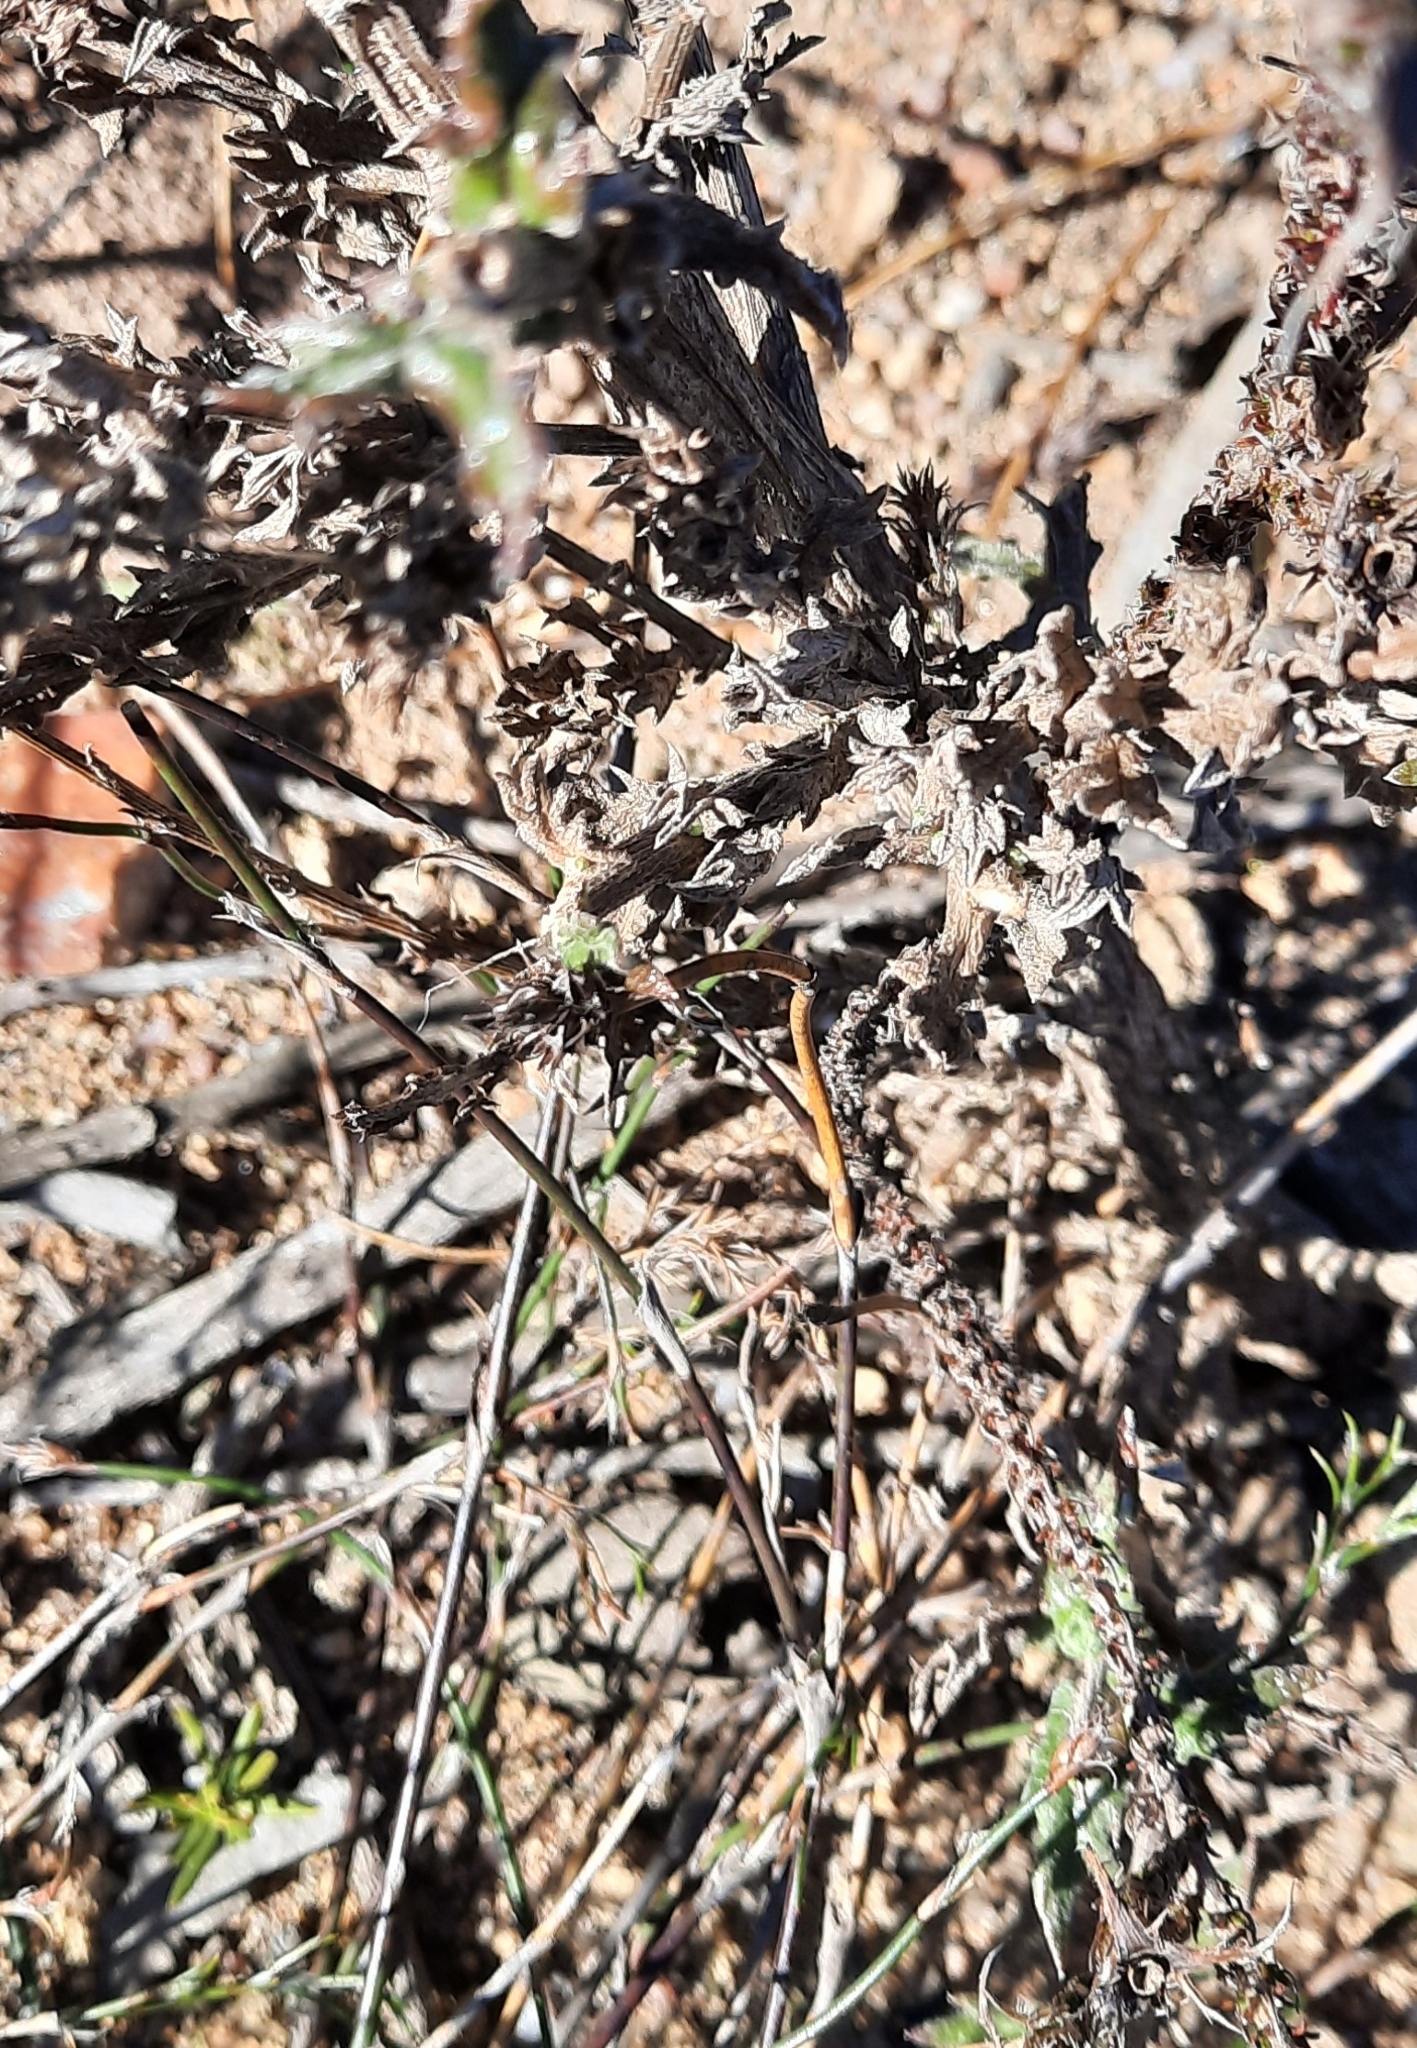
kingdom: Plantae
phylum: Tracheophyta
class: Magnoliopsida
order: Asterales
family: Asteraceae
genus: Senecio
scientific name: Senecio pubigerus
